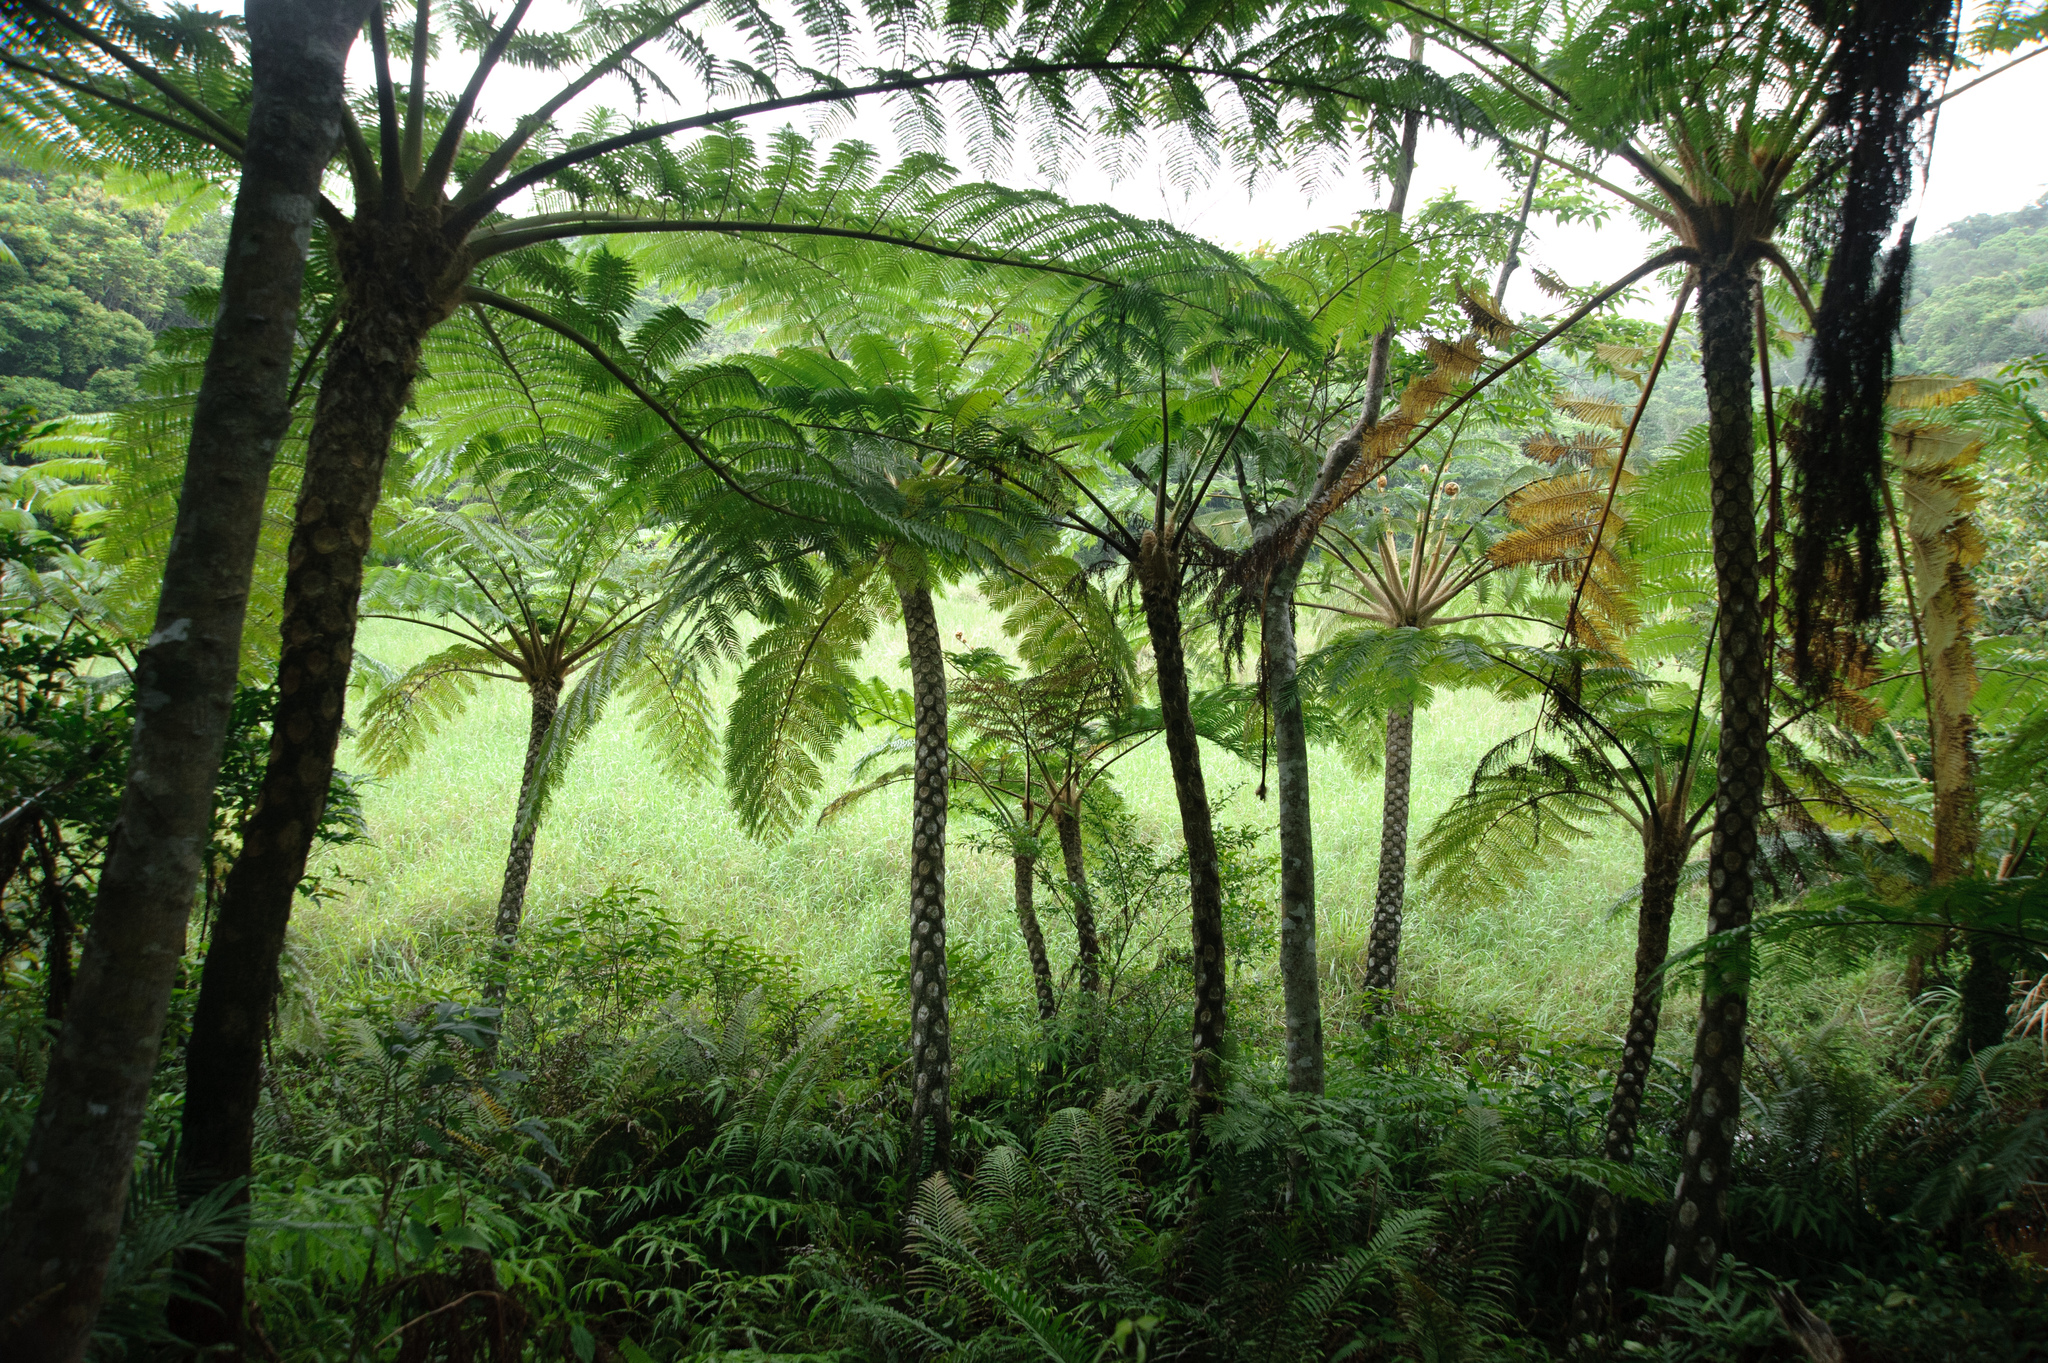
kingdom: Plantae
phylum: Tracheophyta
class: Polypodiopsida
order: Cyatheales
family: Cyatheaceae
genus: Alsophila
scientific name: Alsophila lepifera
